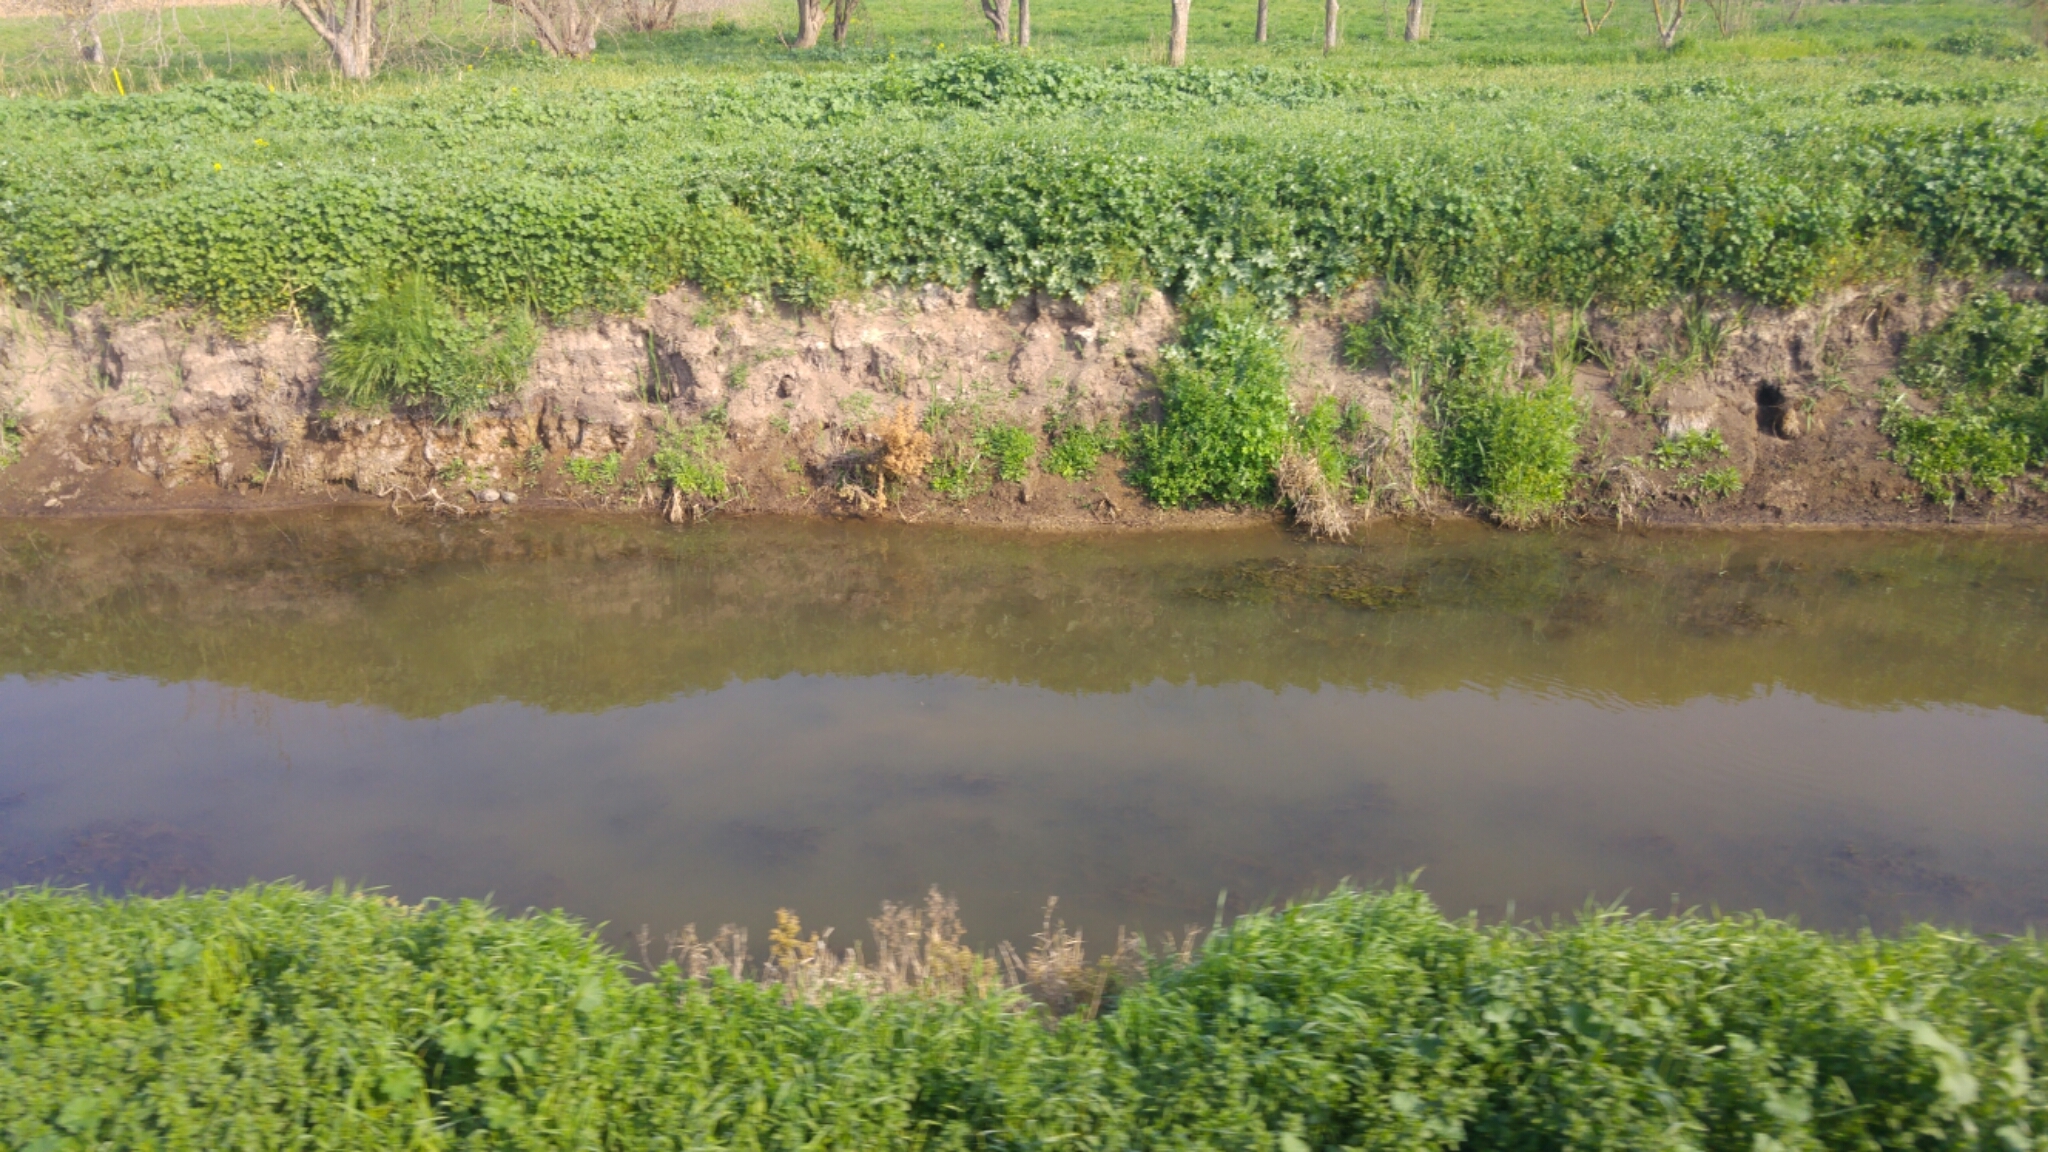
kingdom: Animalia
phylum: Chordata
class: Testudines
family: Geoemydidae
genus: Mauremys
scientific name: Mauremys rivulata
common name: Western caspian turtle
